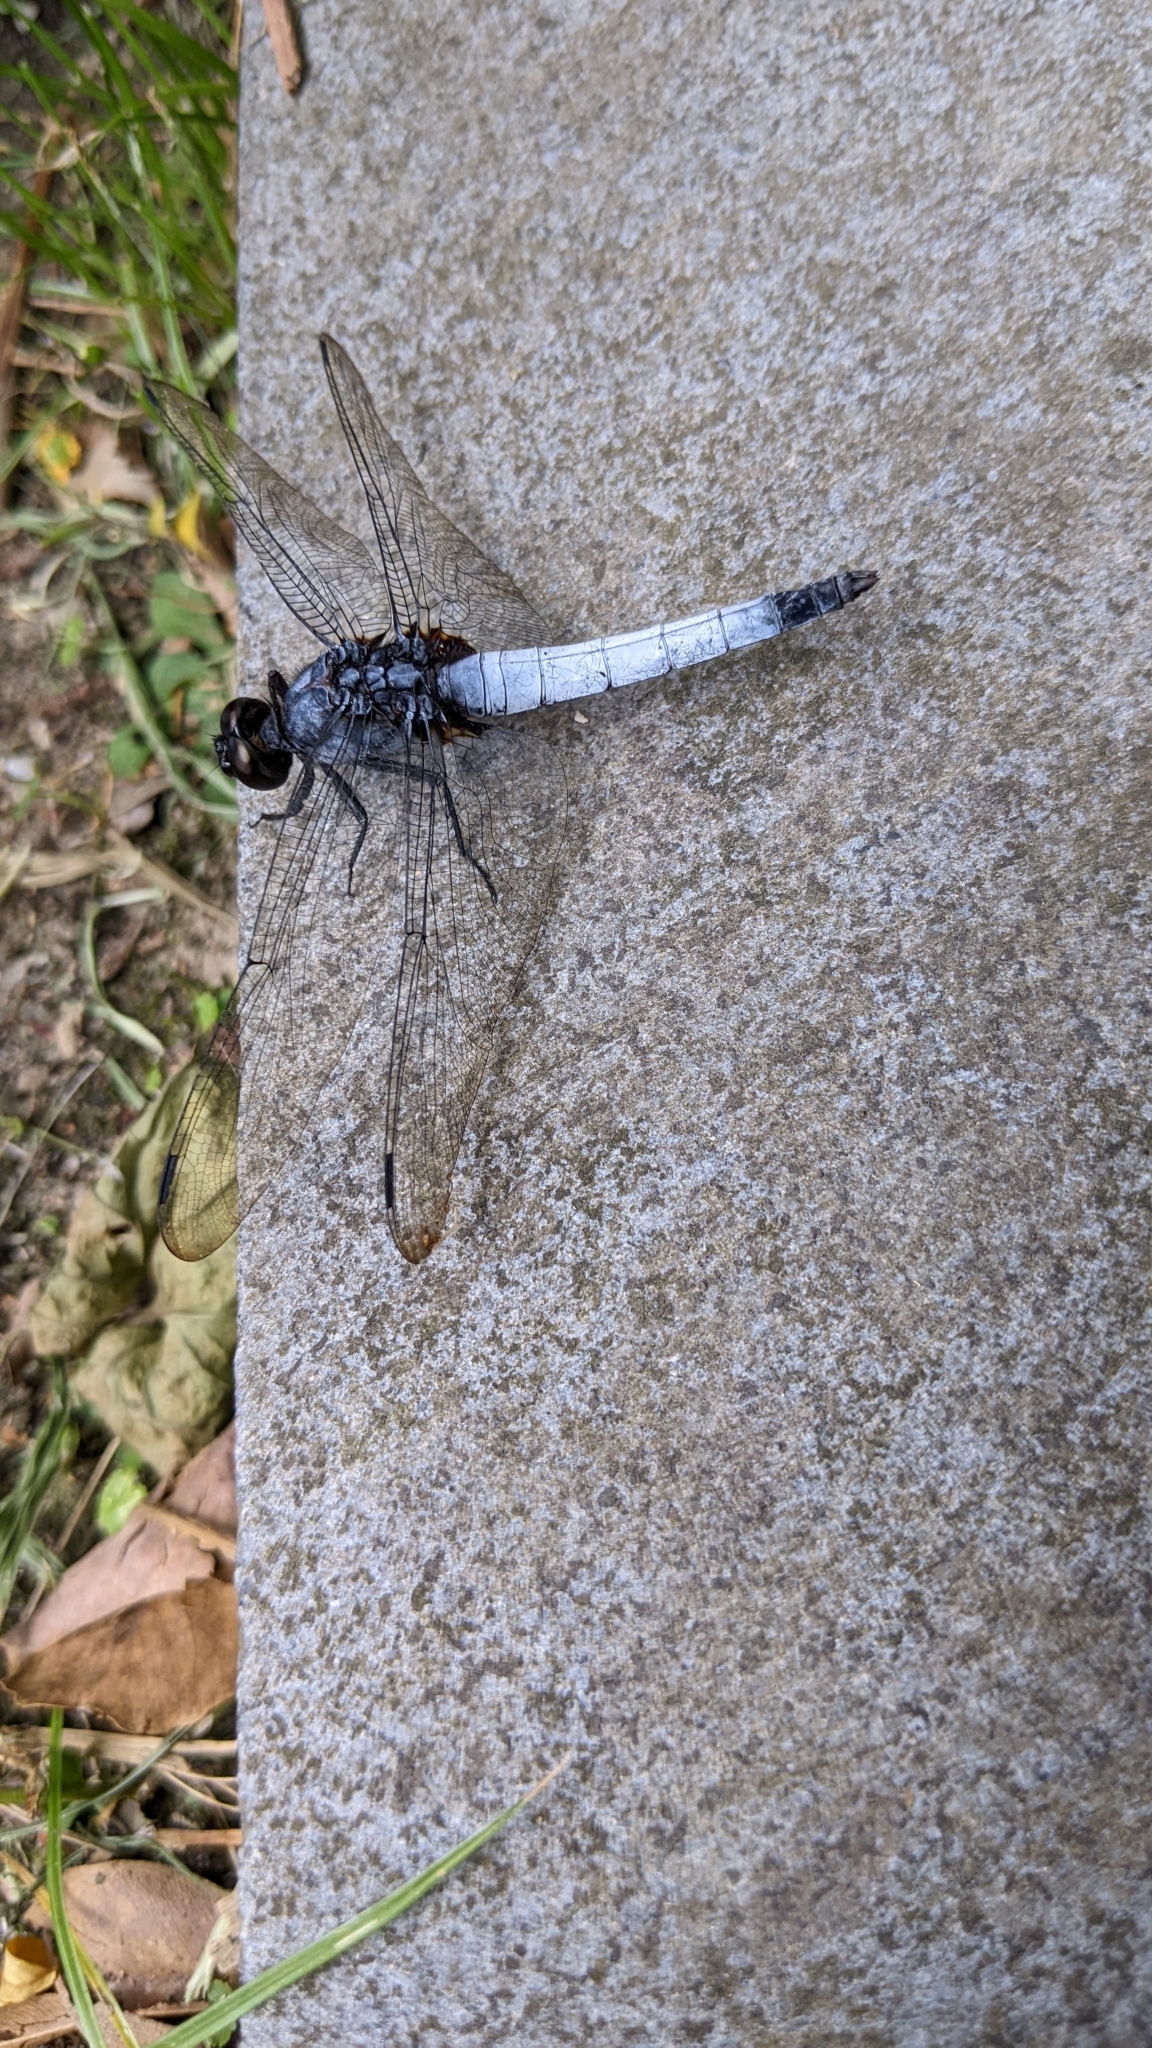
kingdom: Animalia
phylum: Arthropoda
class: Insecta
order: Odonata
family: Libellulidae
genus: Orthetrum
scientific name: Orthetrum glaucum
